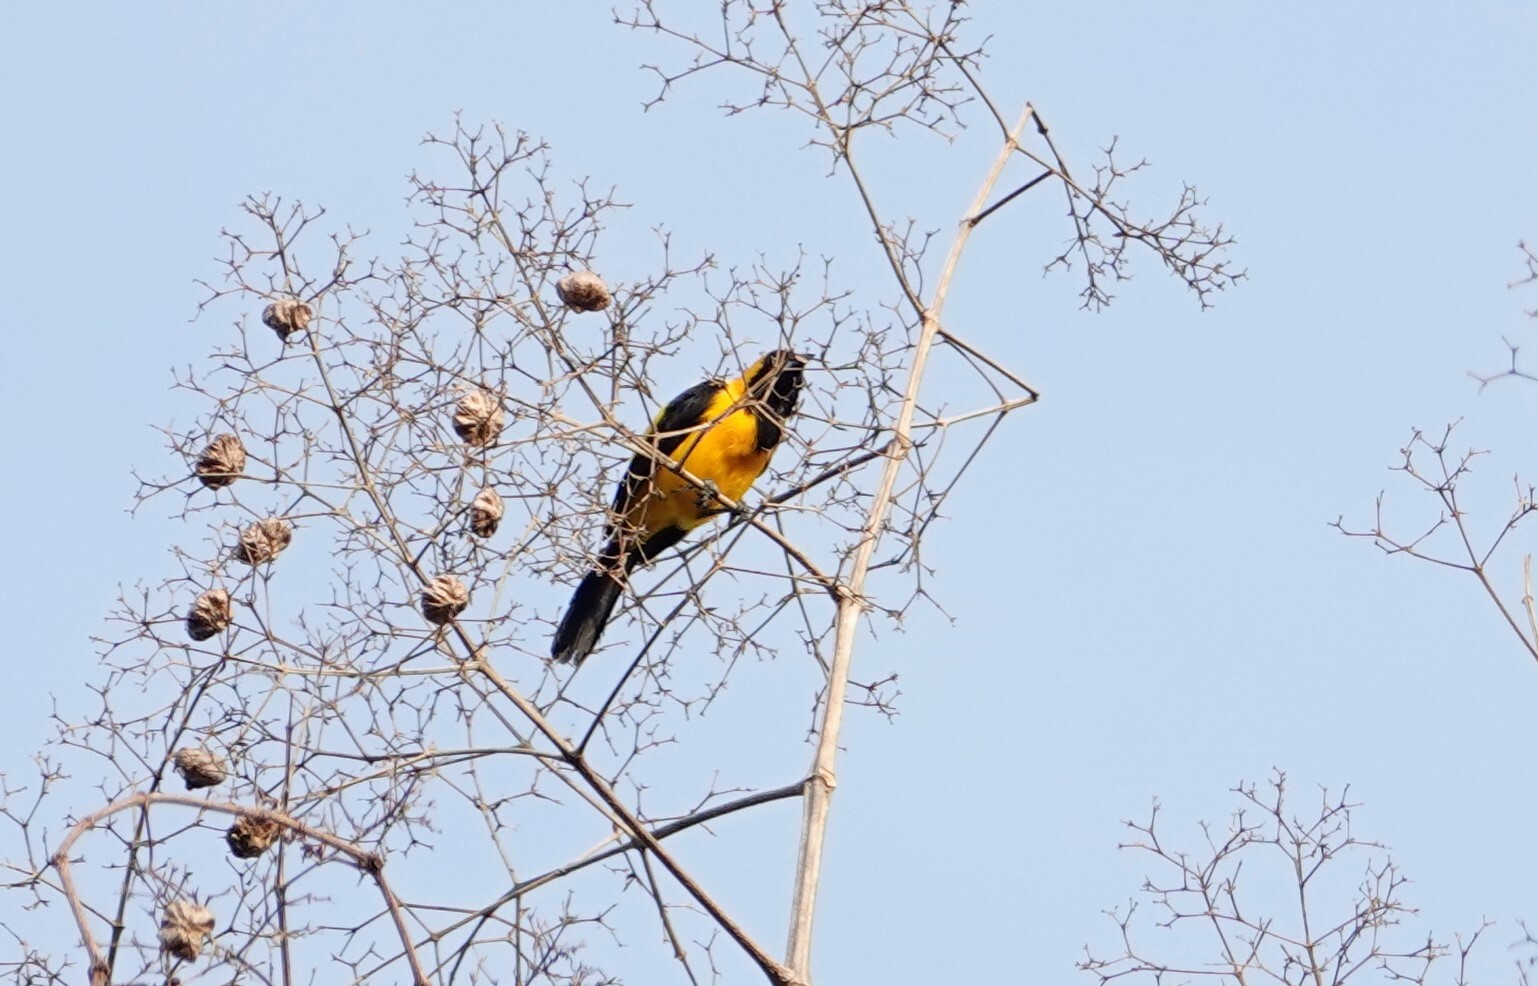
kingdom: Animalia
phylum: Chordata
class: Aves
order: Passeriformes
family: Icteridae
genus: Icterus
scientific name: Icterus chrysater
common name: Yellow-backed oriole
